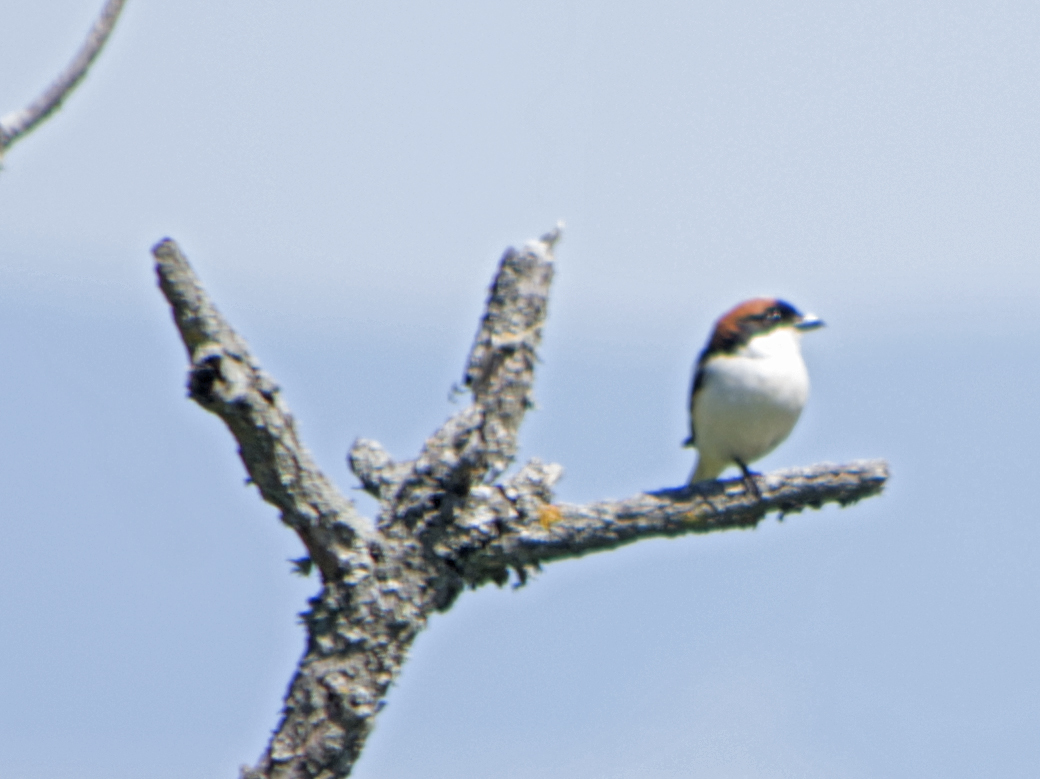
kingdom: Animalia
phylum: Chordata
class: Aves
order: Passeriformes
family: Laniidae
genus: Lanius
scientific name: Lanius senator
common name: Woodchat shrike
